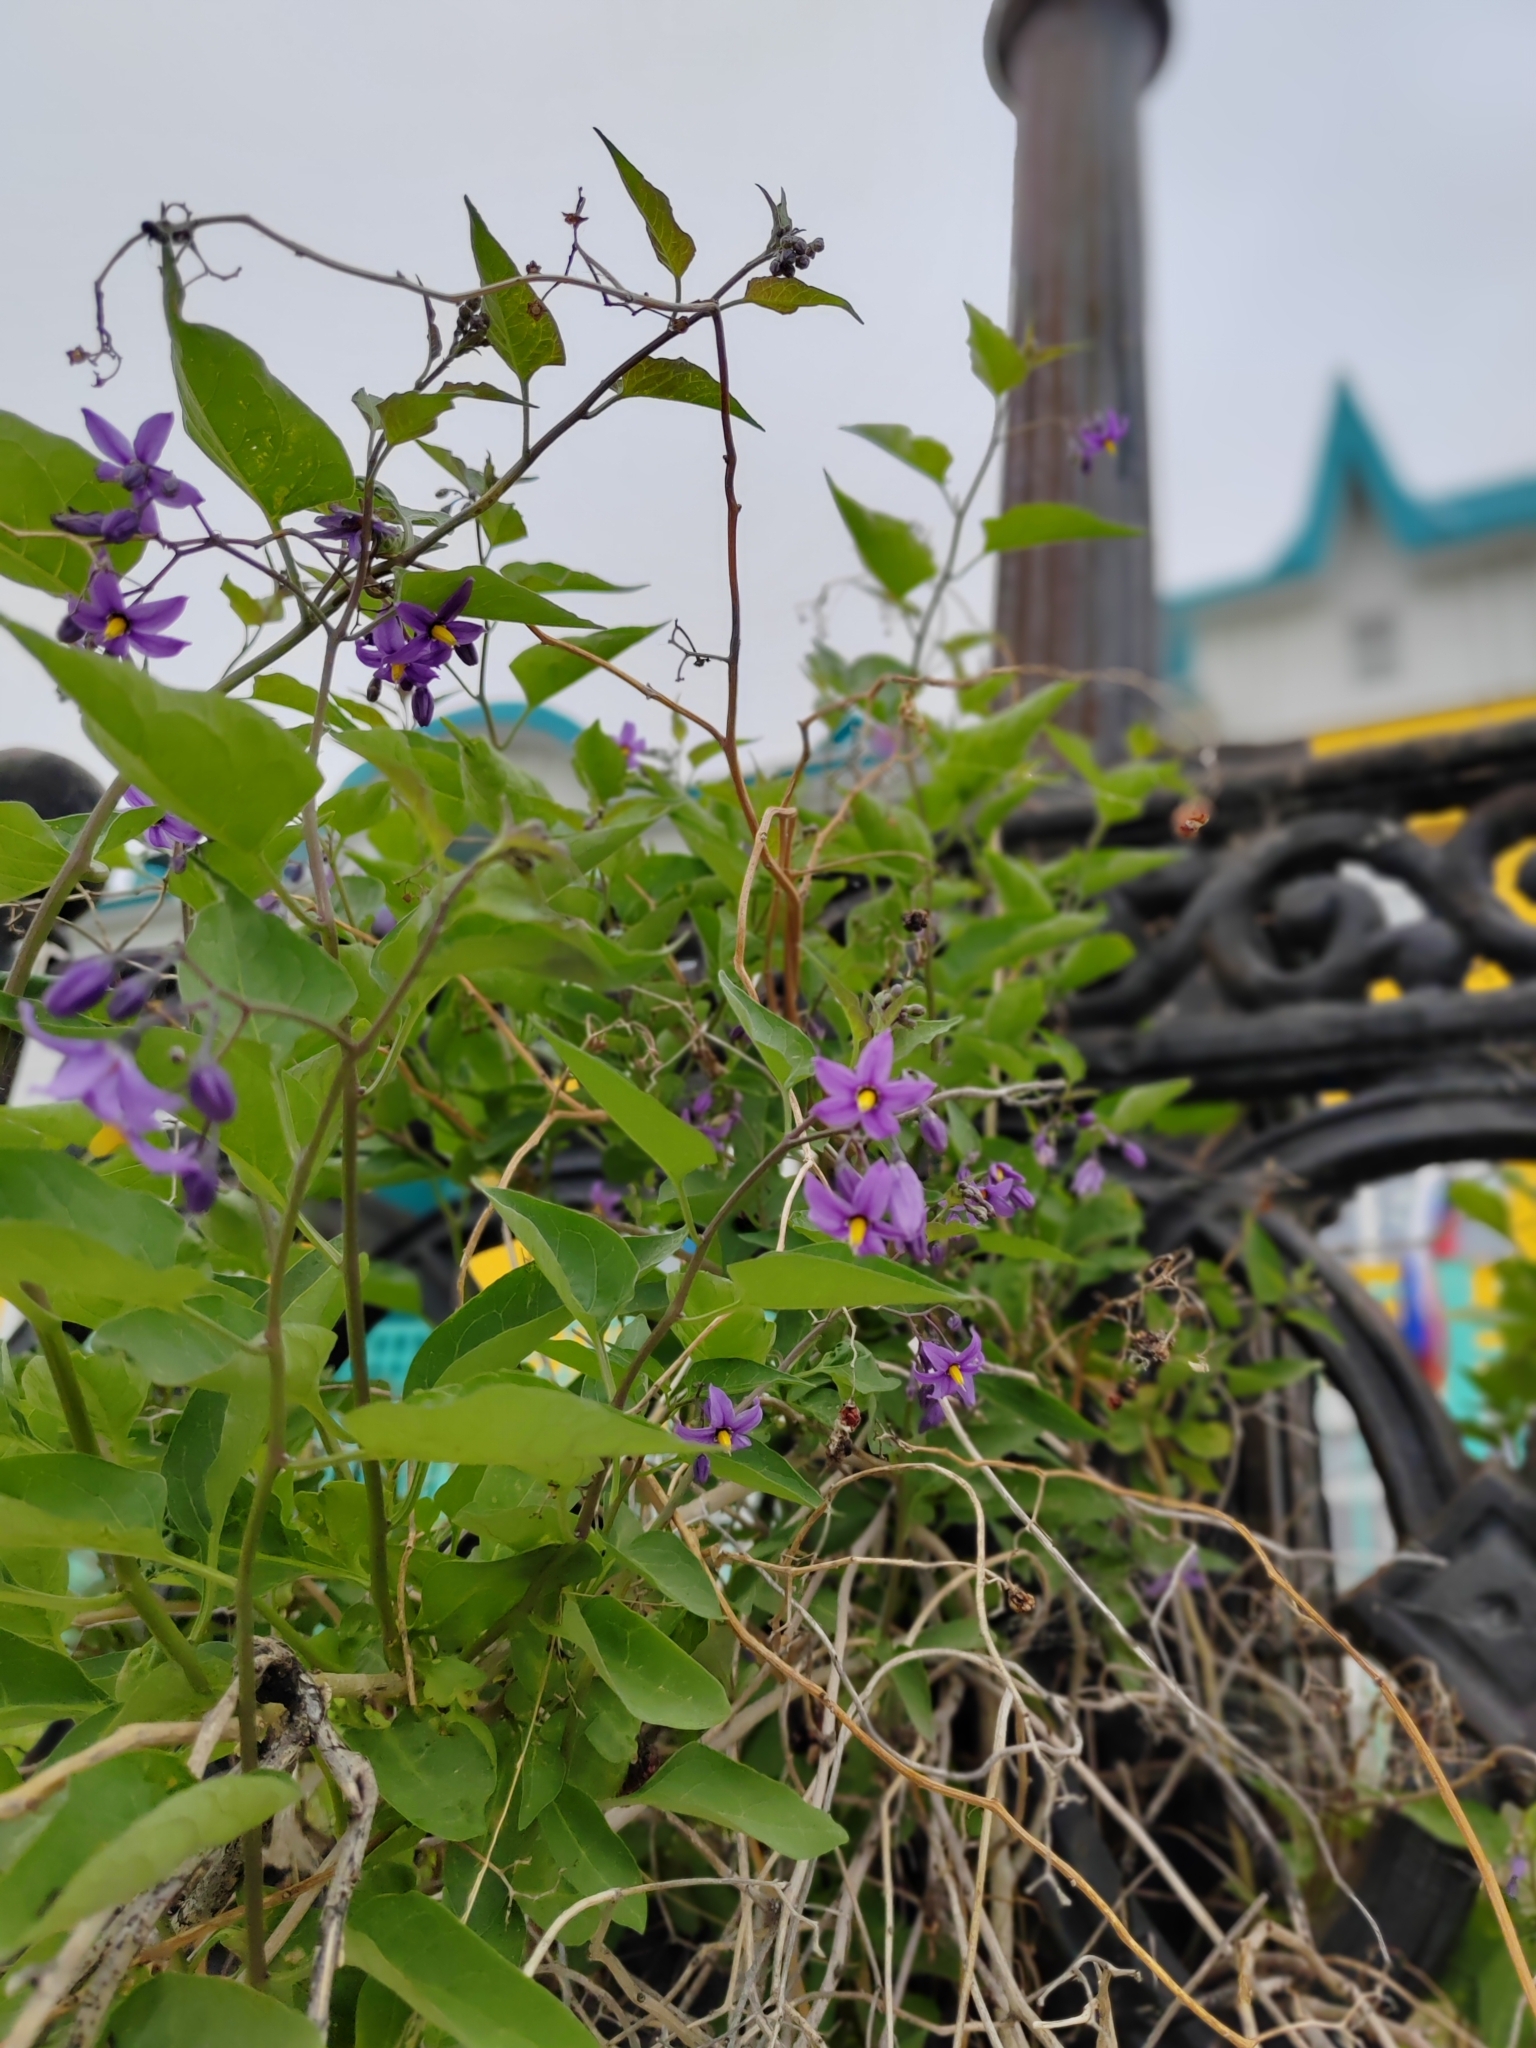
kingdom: Plantae
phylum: Tracheophyta
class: Magnoliopsida
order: Solanales
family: Solanaceae
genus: Solanum
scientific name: Solanum dulcamara
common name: Climbing nightshade
